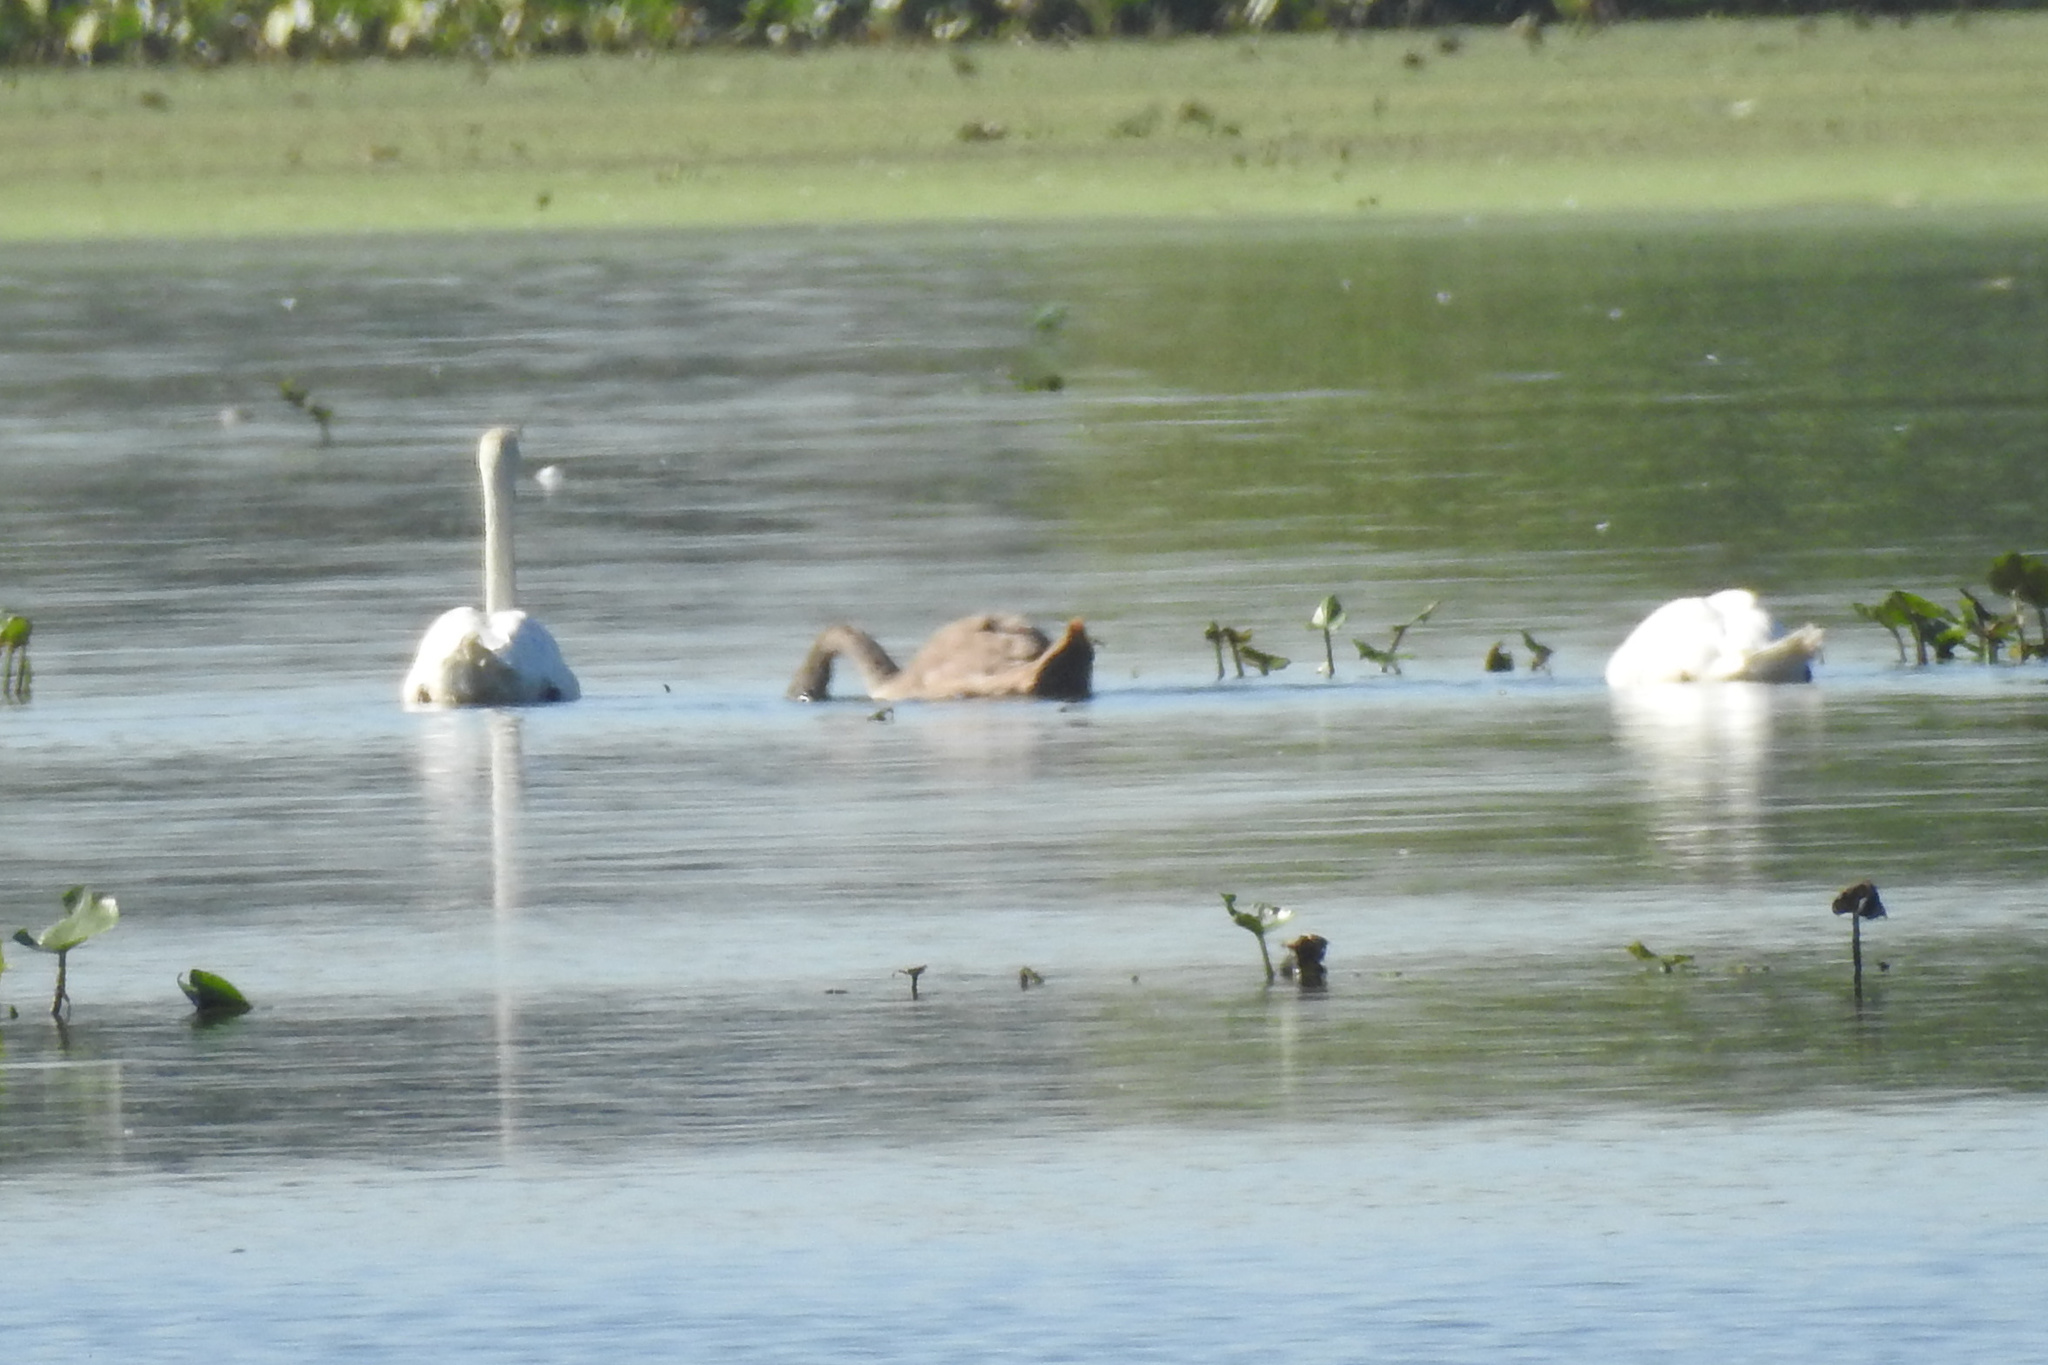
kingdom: Animalia
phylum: Chordata
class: Aves
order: Anseriformes
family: Anatidae
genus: Cygnus
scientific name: Cygnus olor
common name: Mute swan
